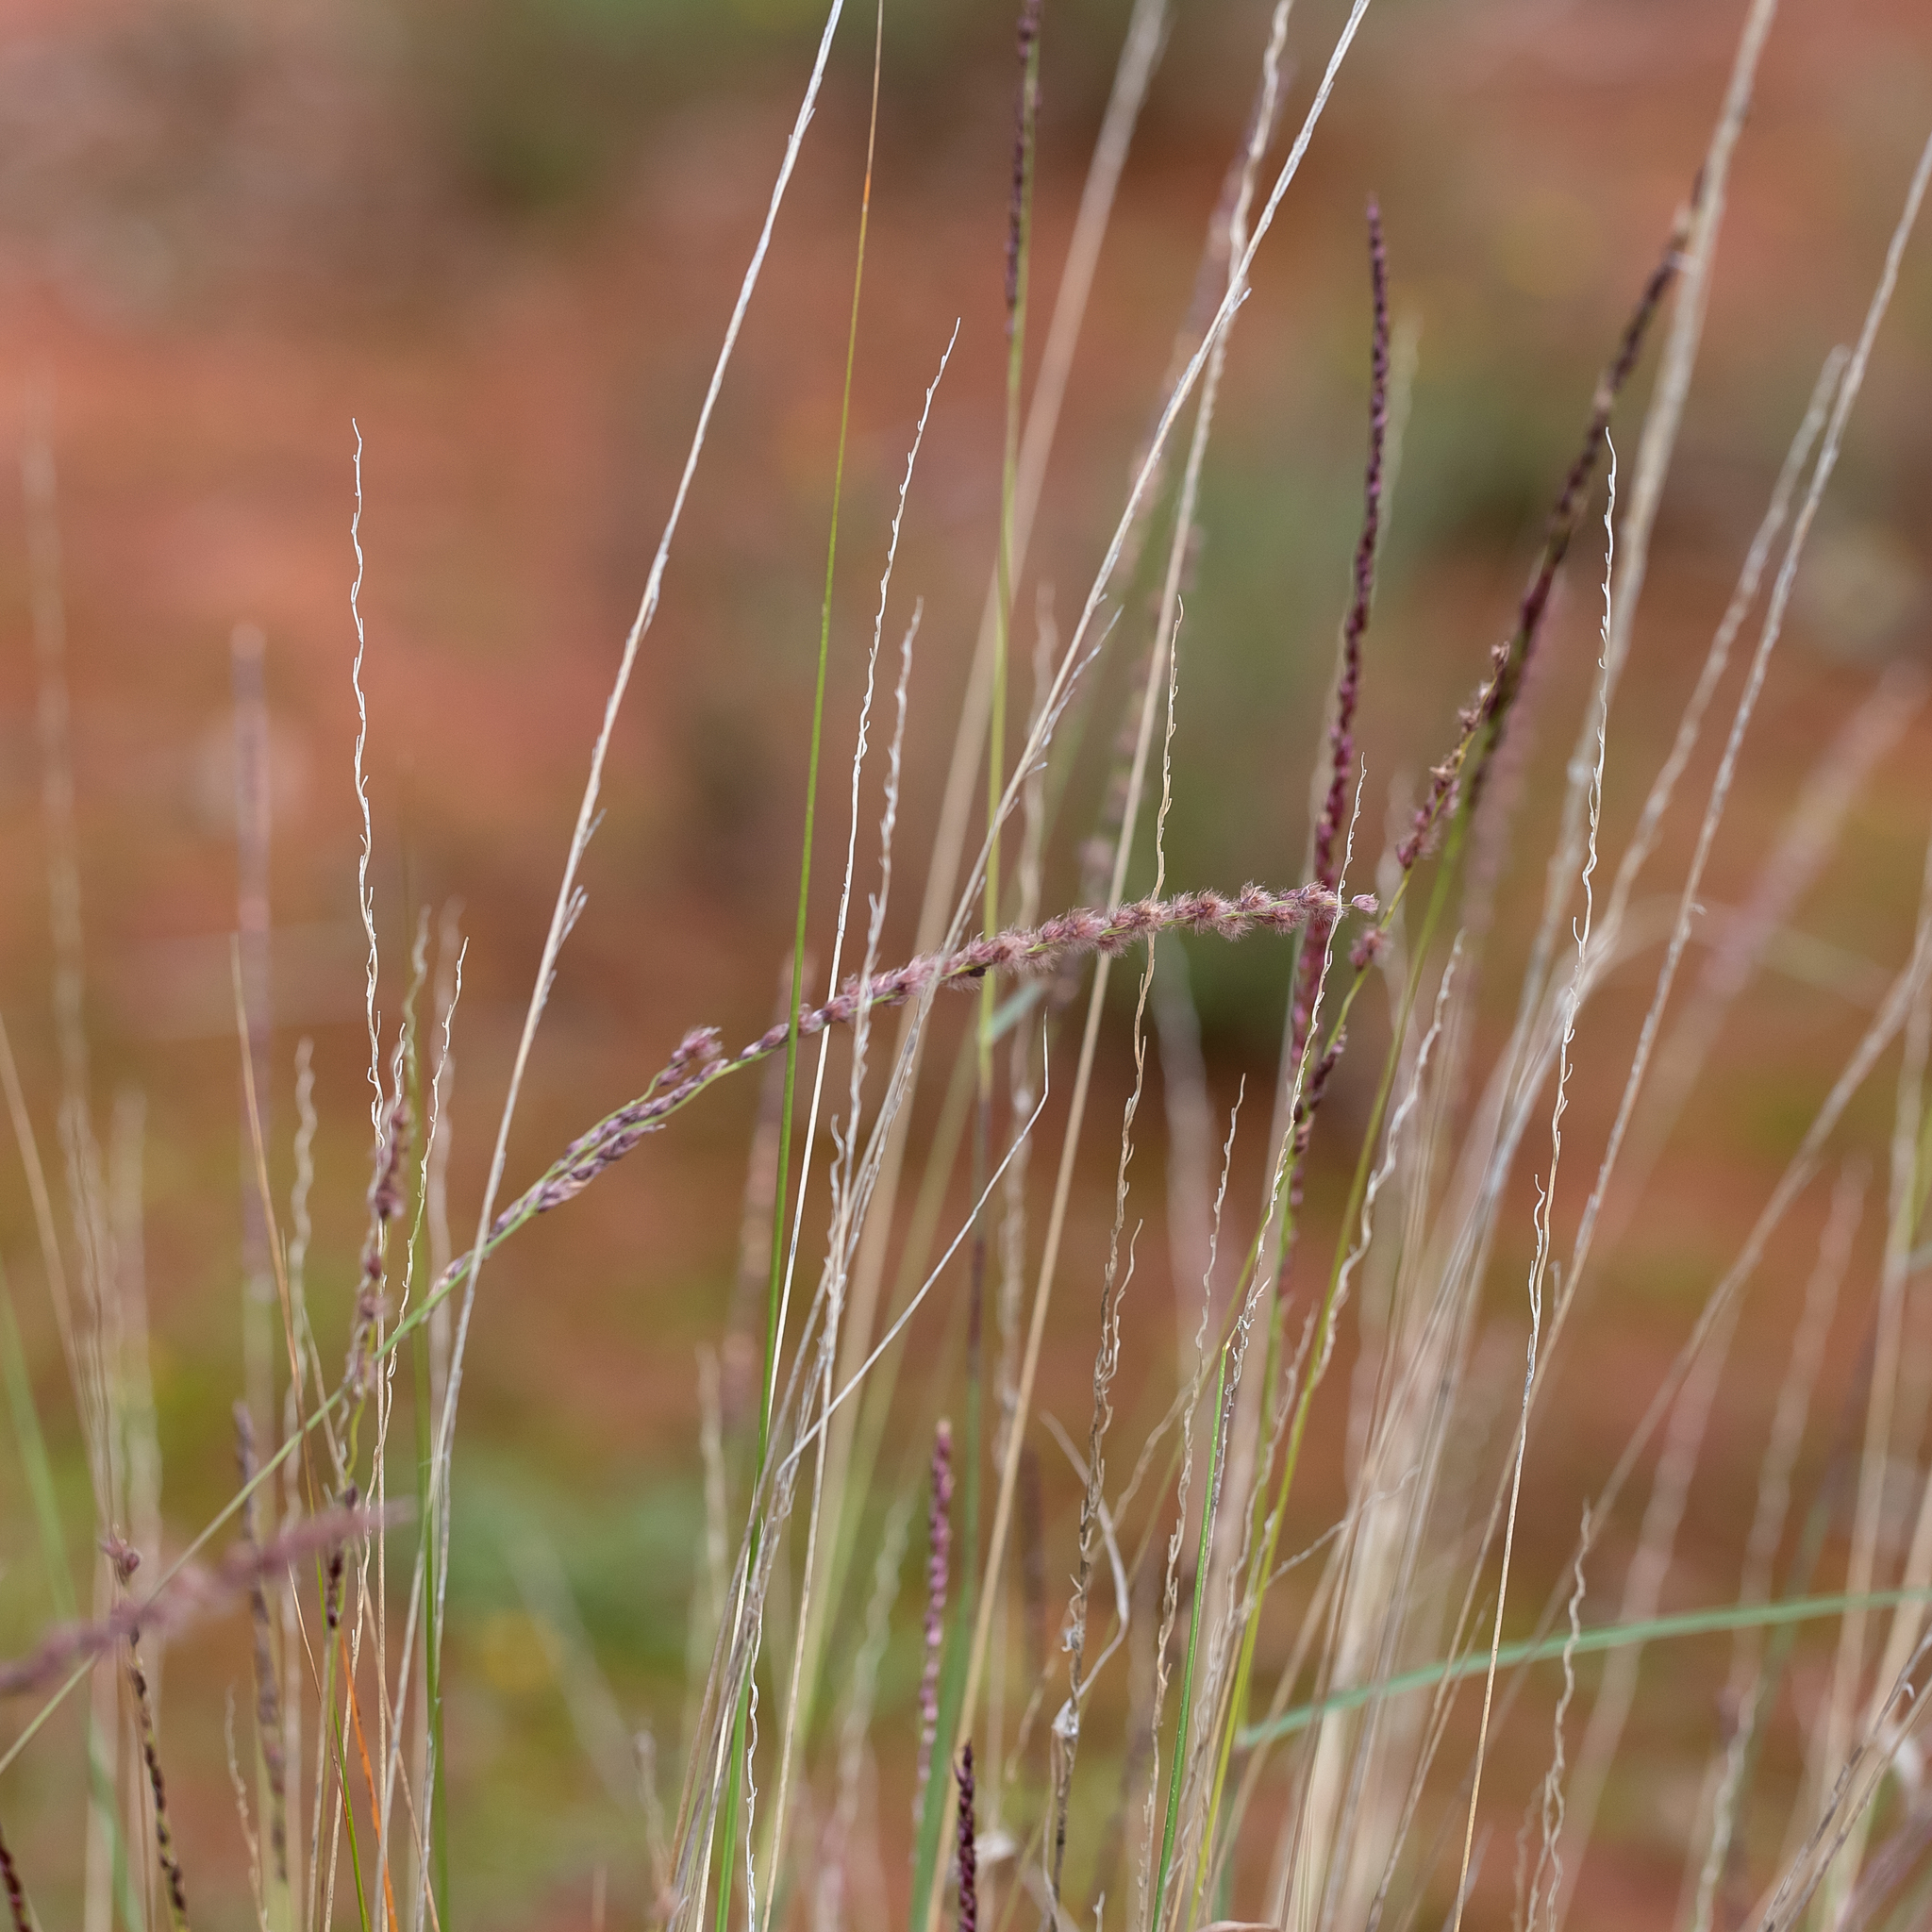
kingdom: Plantae
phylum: Tracheophyta
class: Liliopsida
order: Poales
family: Poaceae
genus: Digitaria
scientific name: Digitaria brownii
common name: Cotton grass
